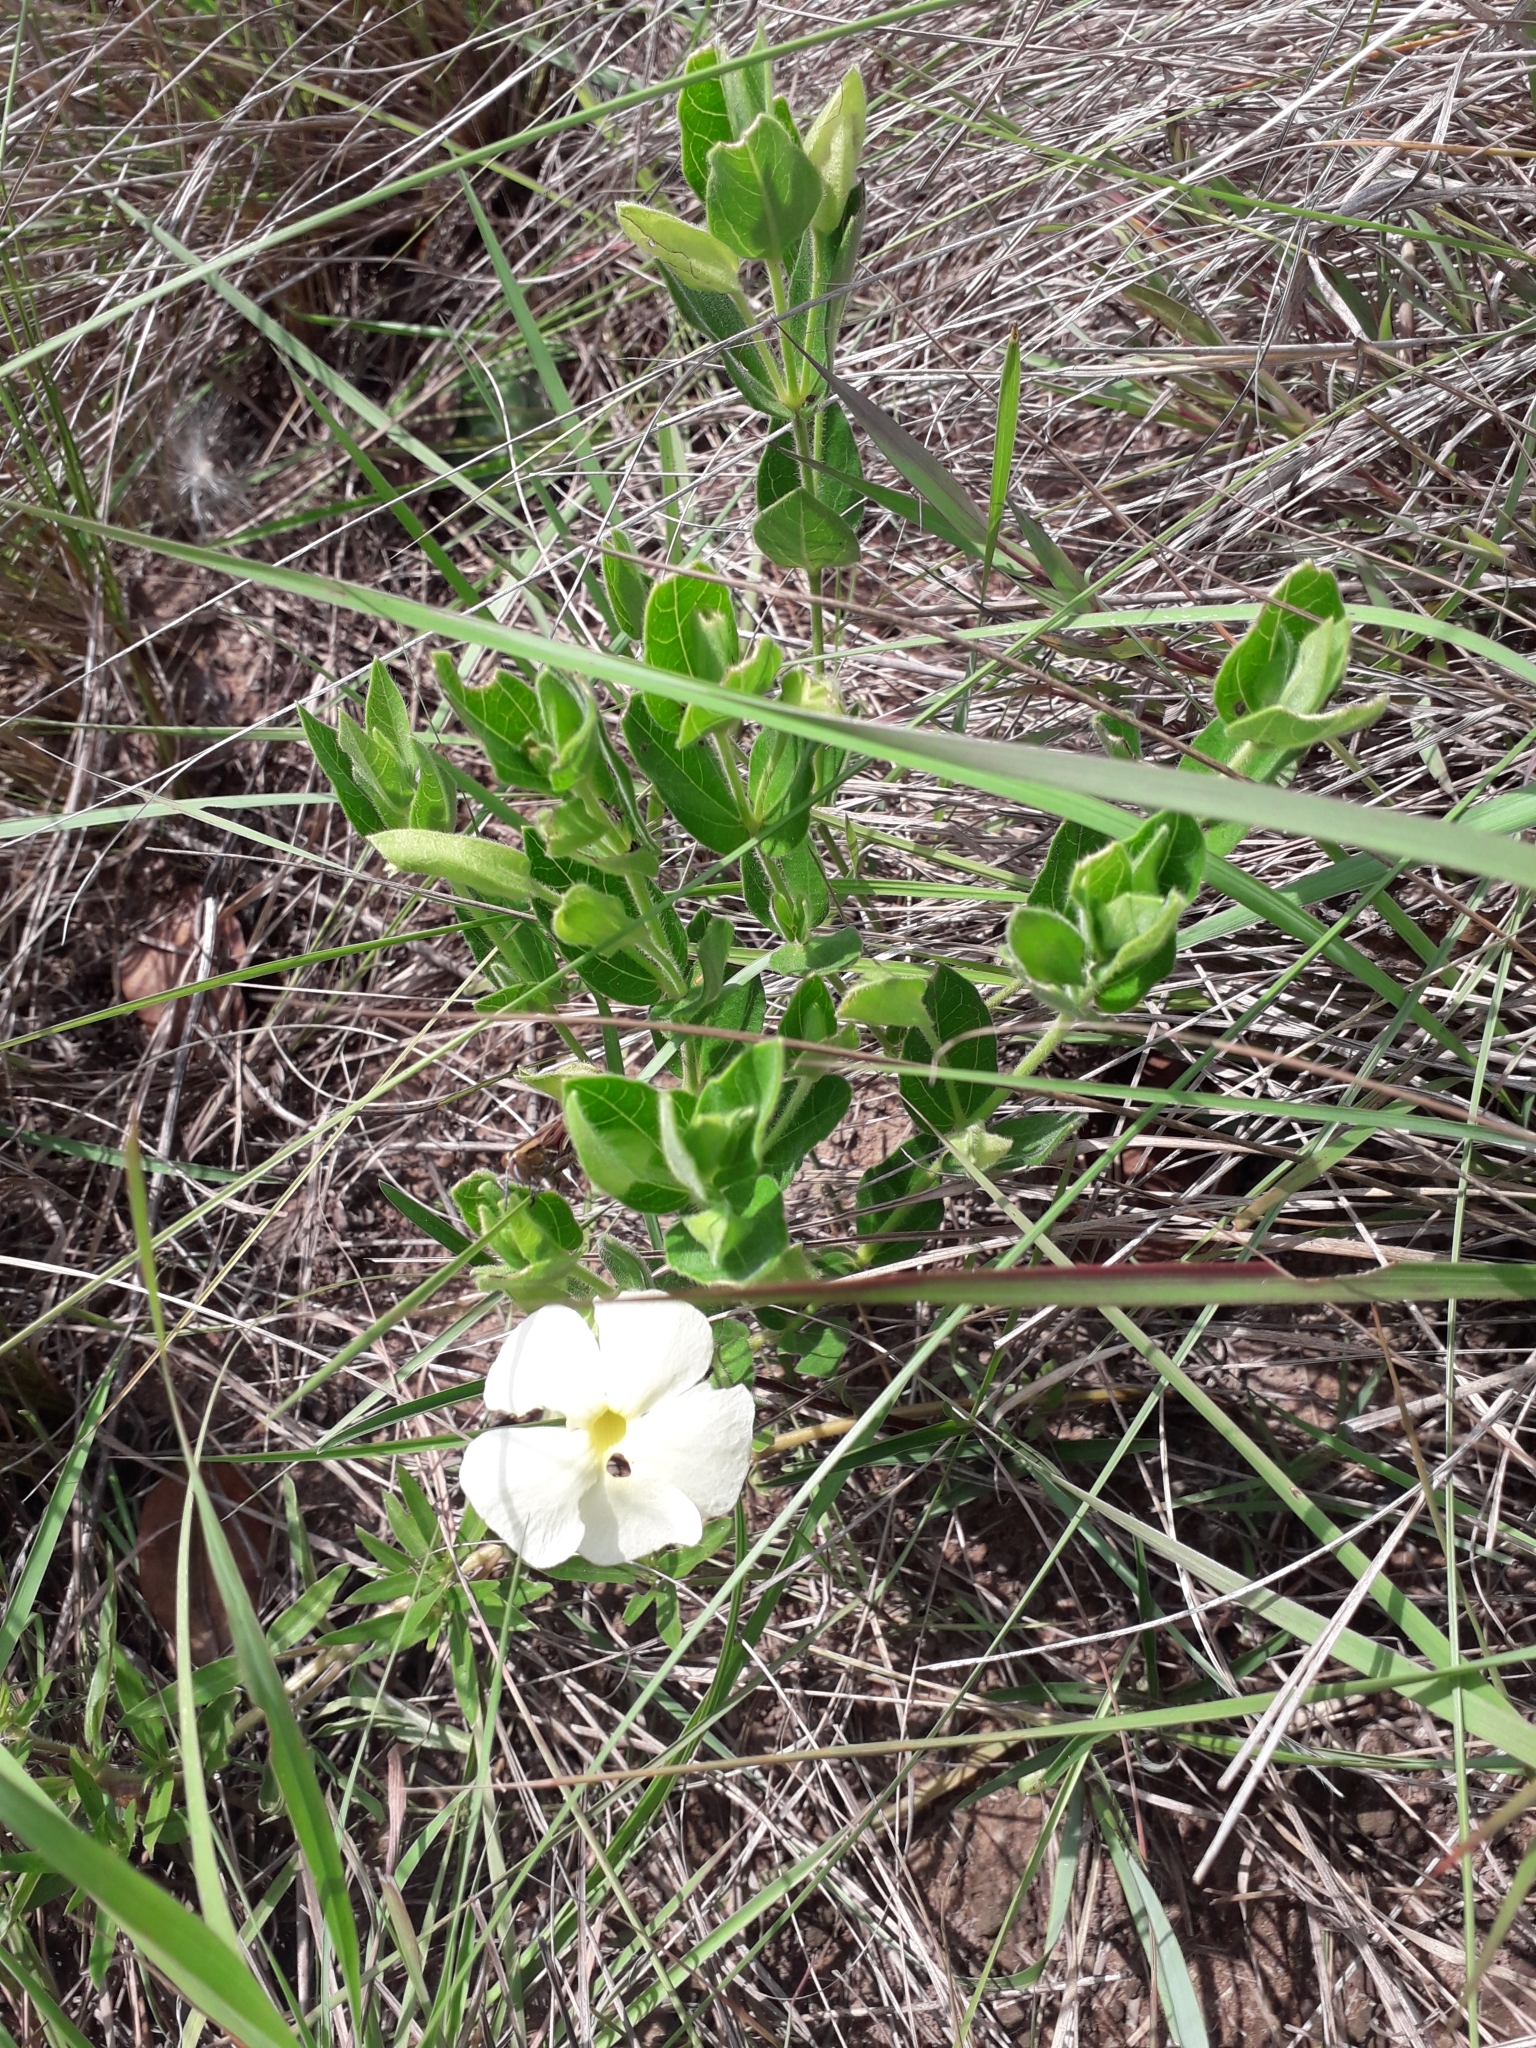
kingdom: Plantae
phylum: Tracheophyta
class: Magnoliopsida
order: Lamiales
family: Acanthaceae
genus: Thunbergia
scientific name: Thunbergia atriplicifolia
